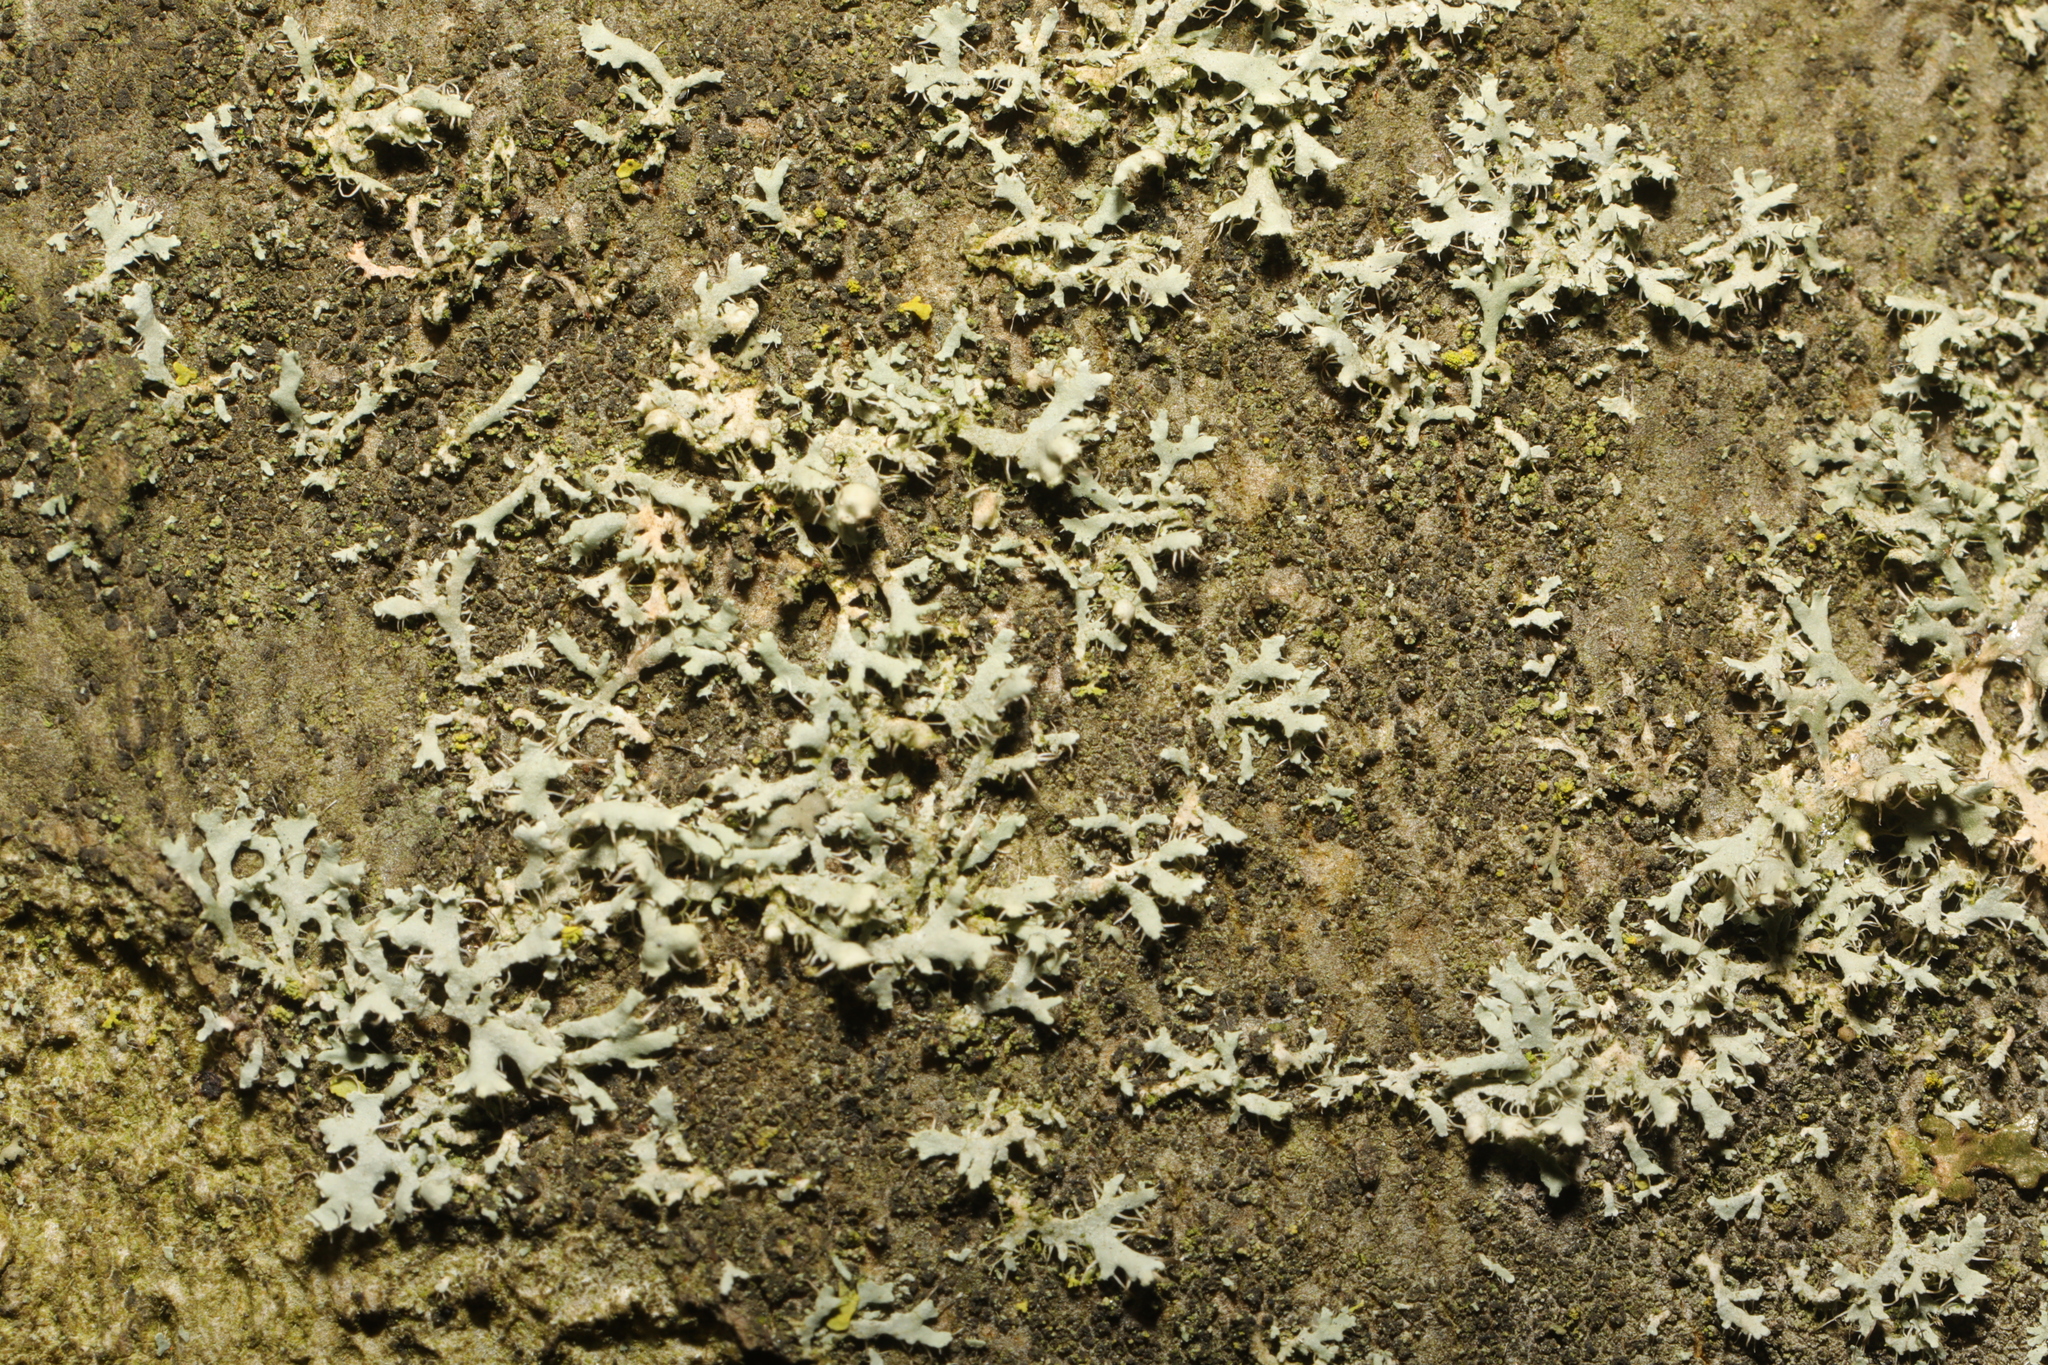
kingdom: Fungi
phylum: Ascomycota
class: Lecanoromycetes
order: Caliciales
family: Physciaceae
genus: Physcia
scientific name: Physcia adscendens
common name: Hooded rosette lichen
